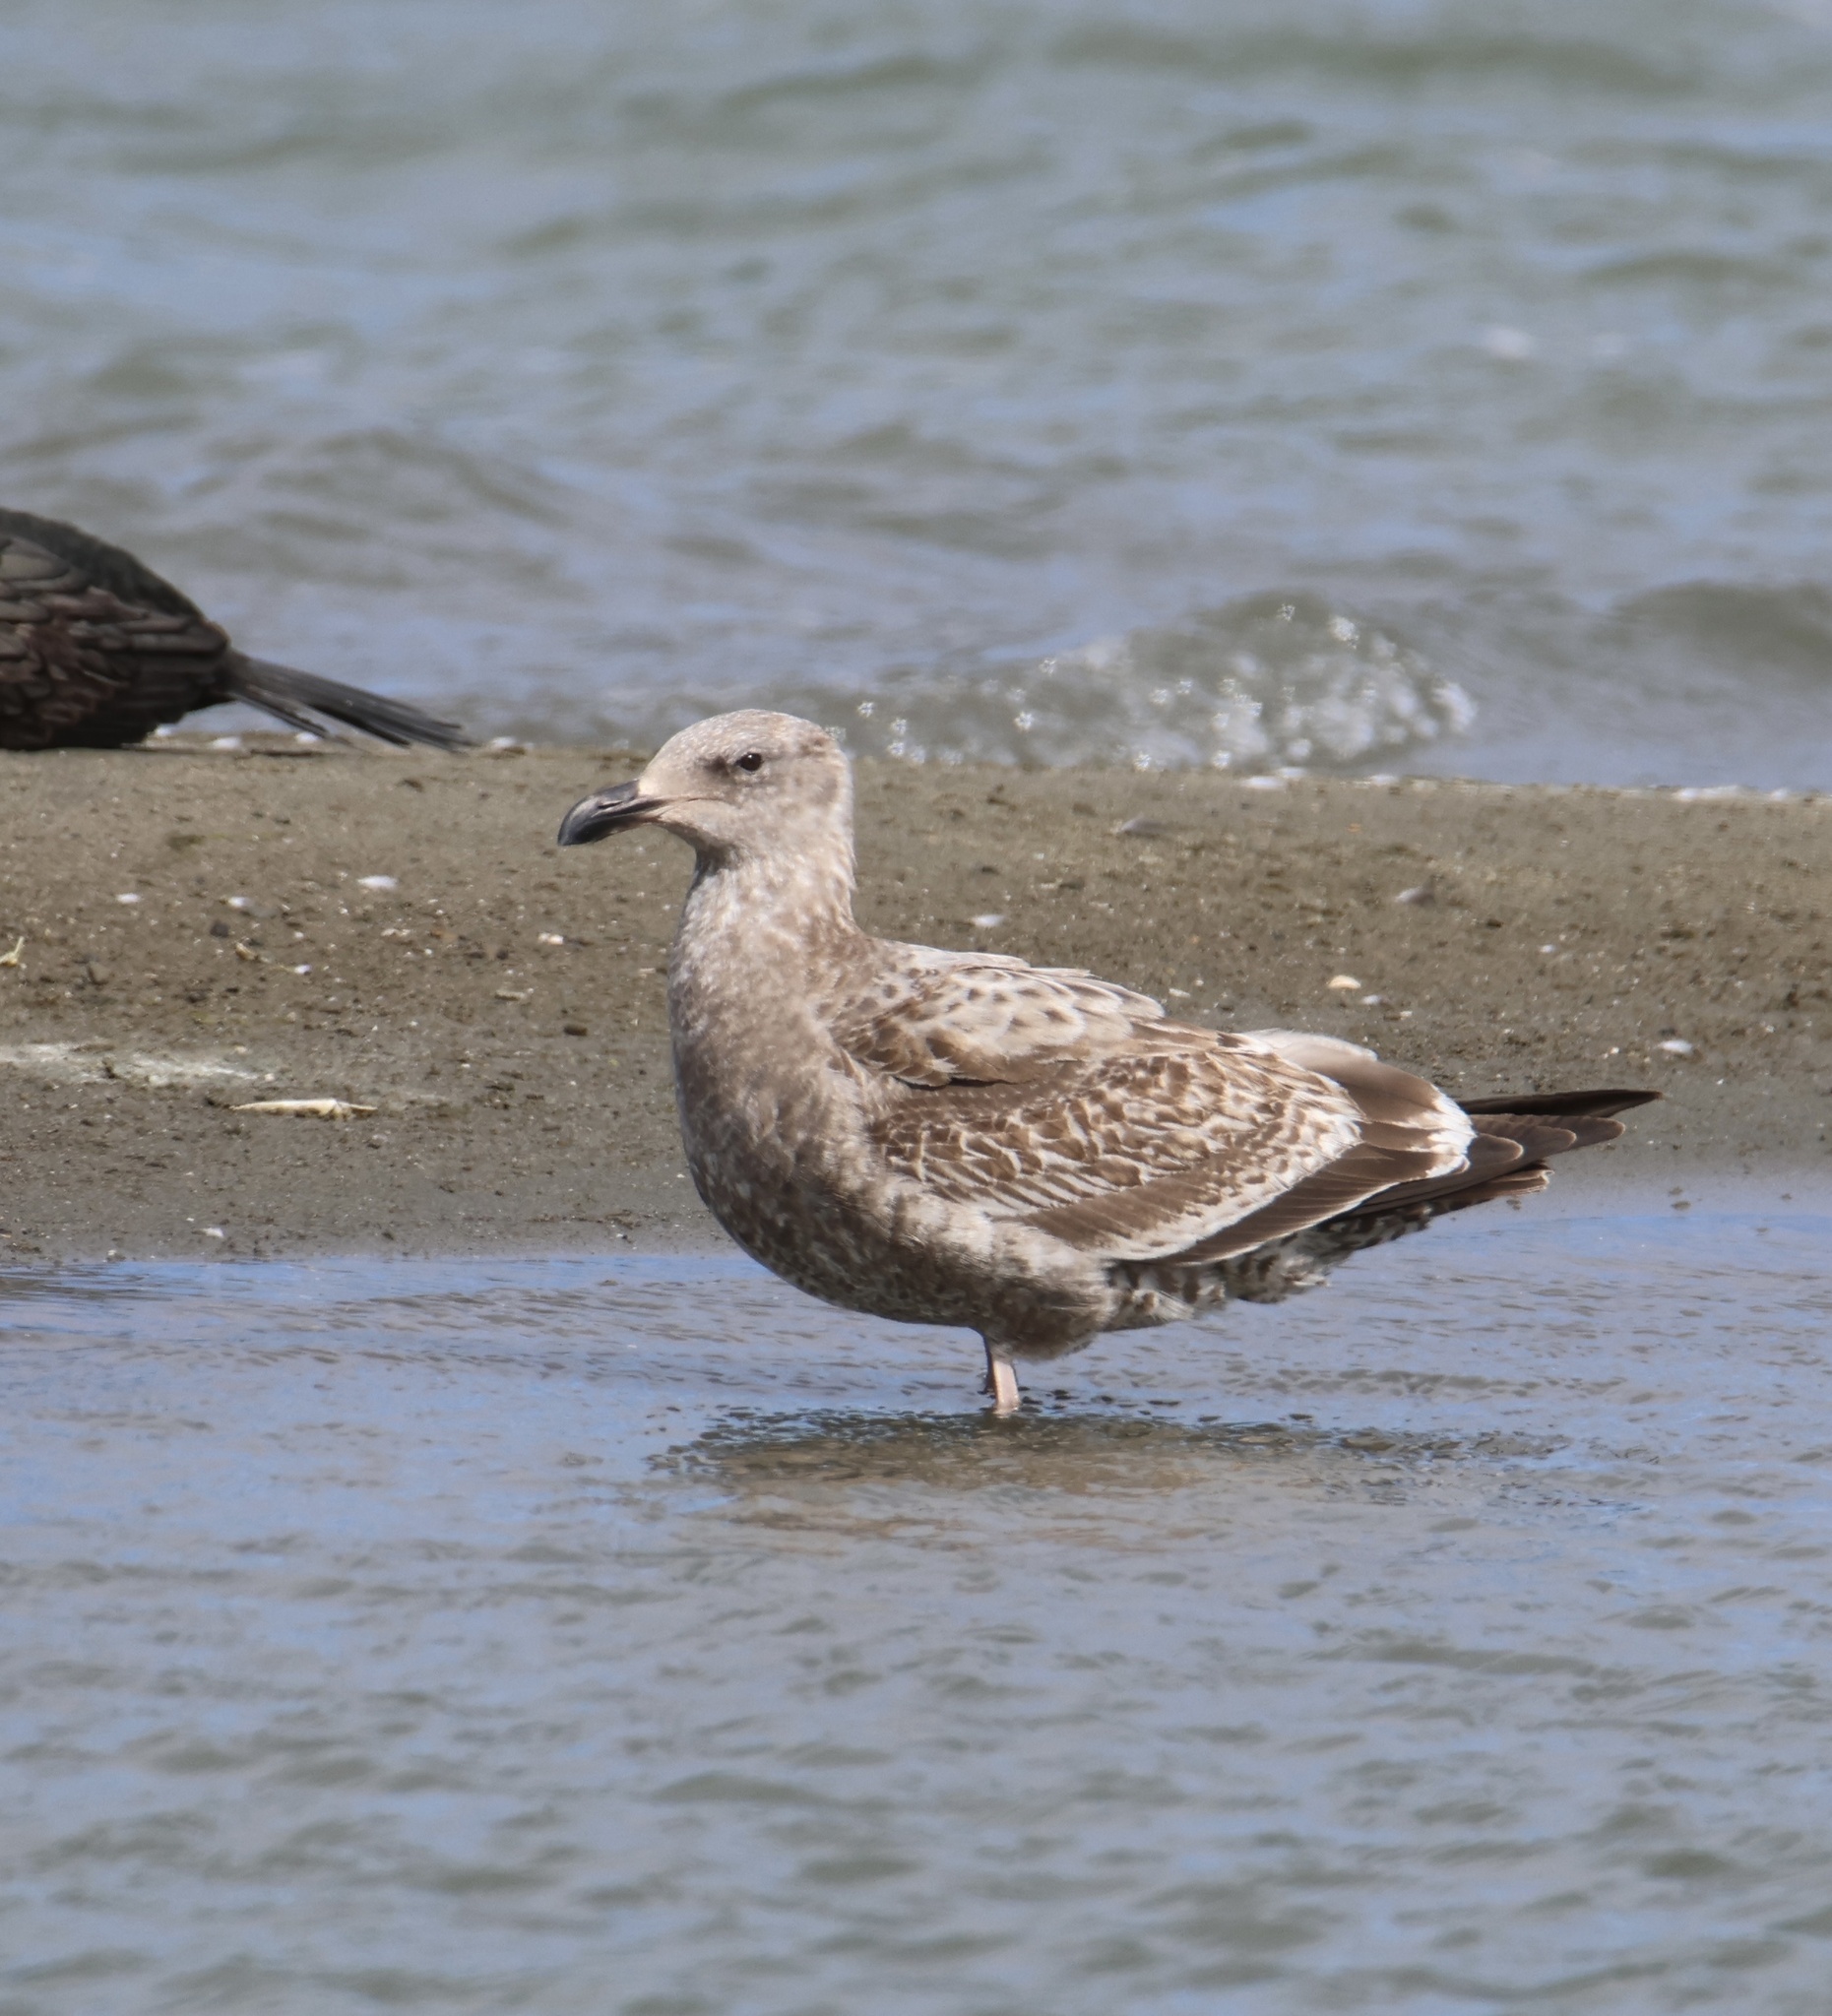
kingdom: Animalia
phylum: Chordata
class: Aves
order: Charadriiformes
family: Laridae
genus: Larus
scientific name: Larus occidentalis
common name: Western gull
